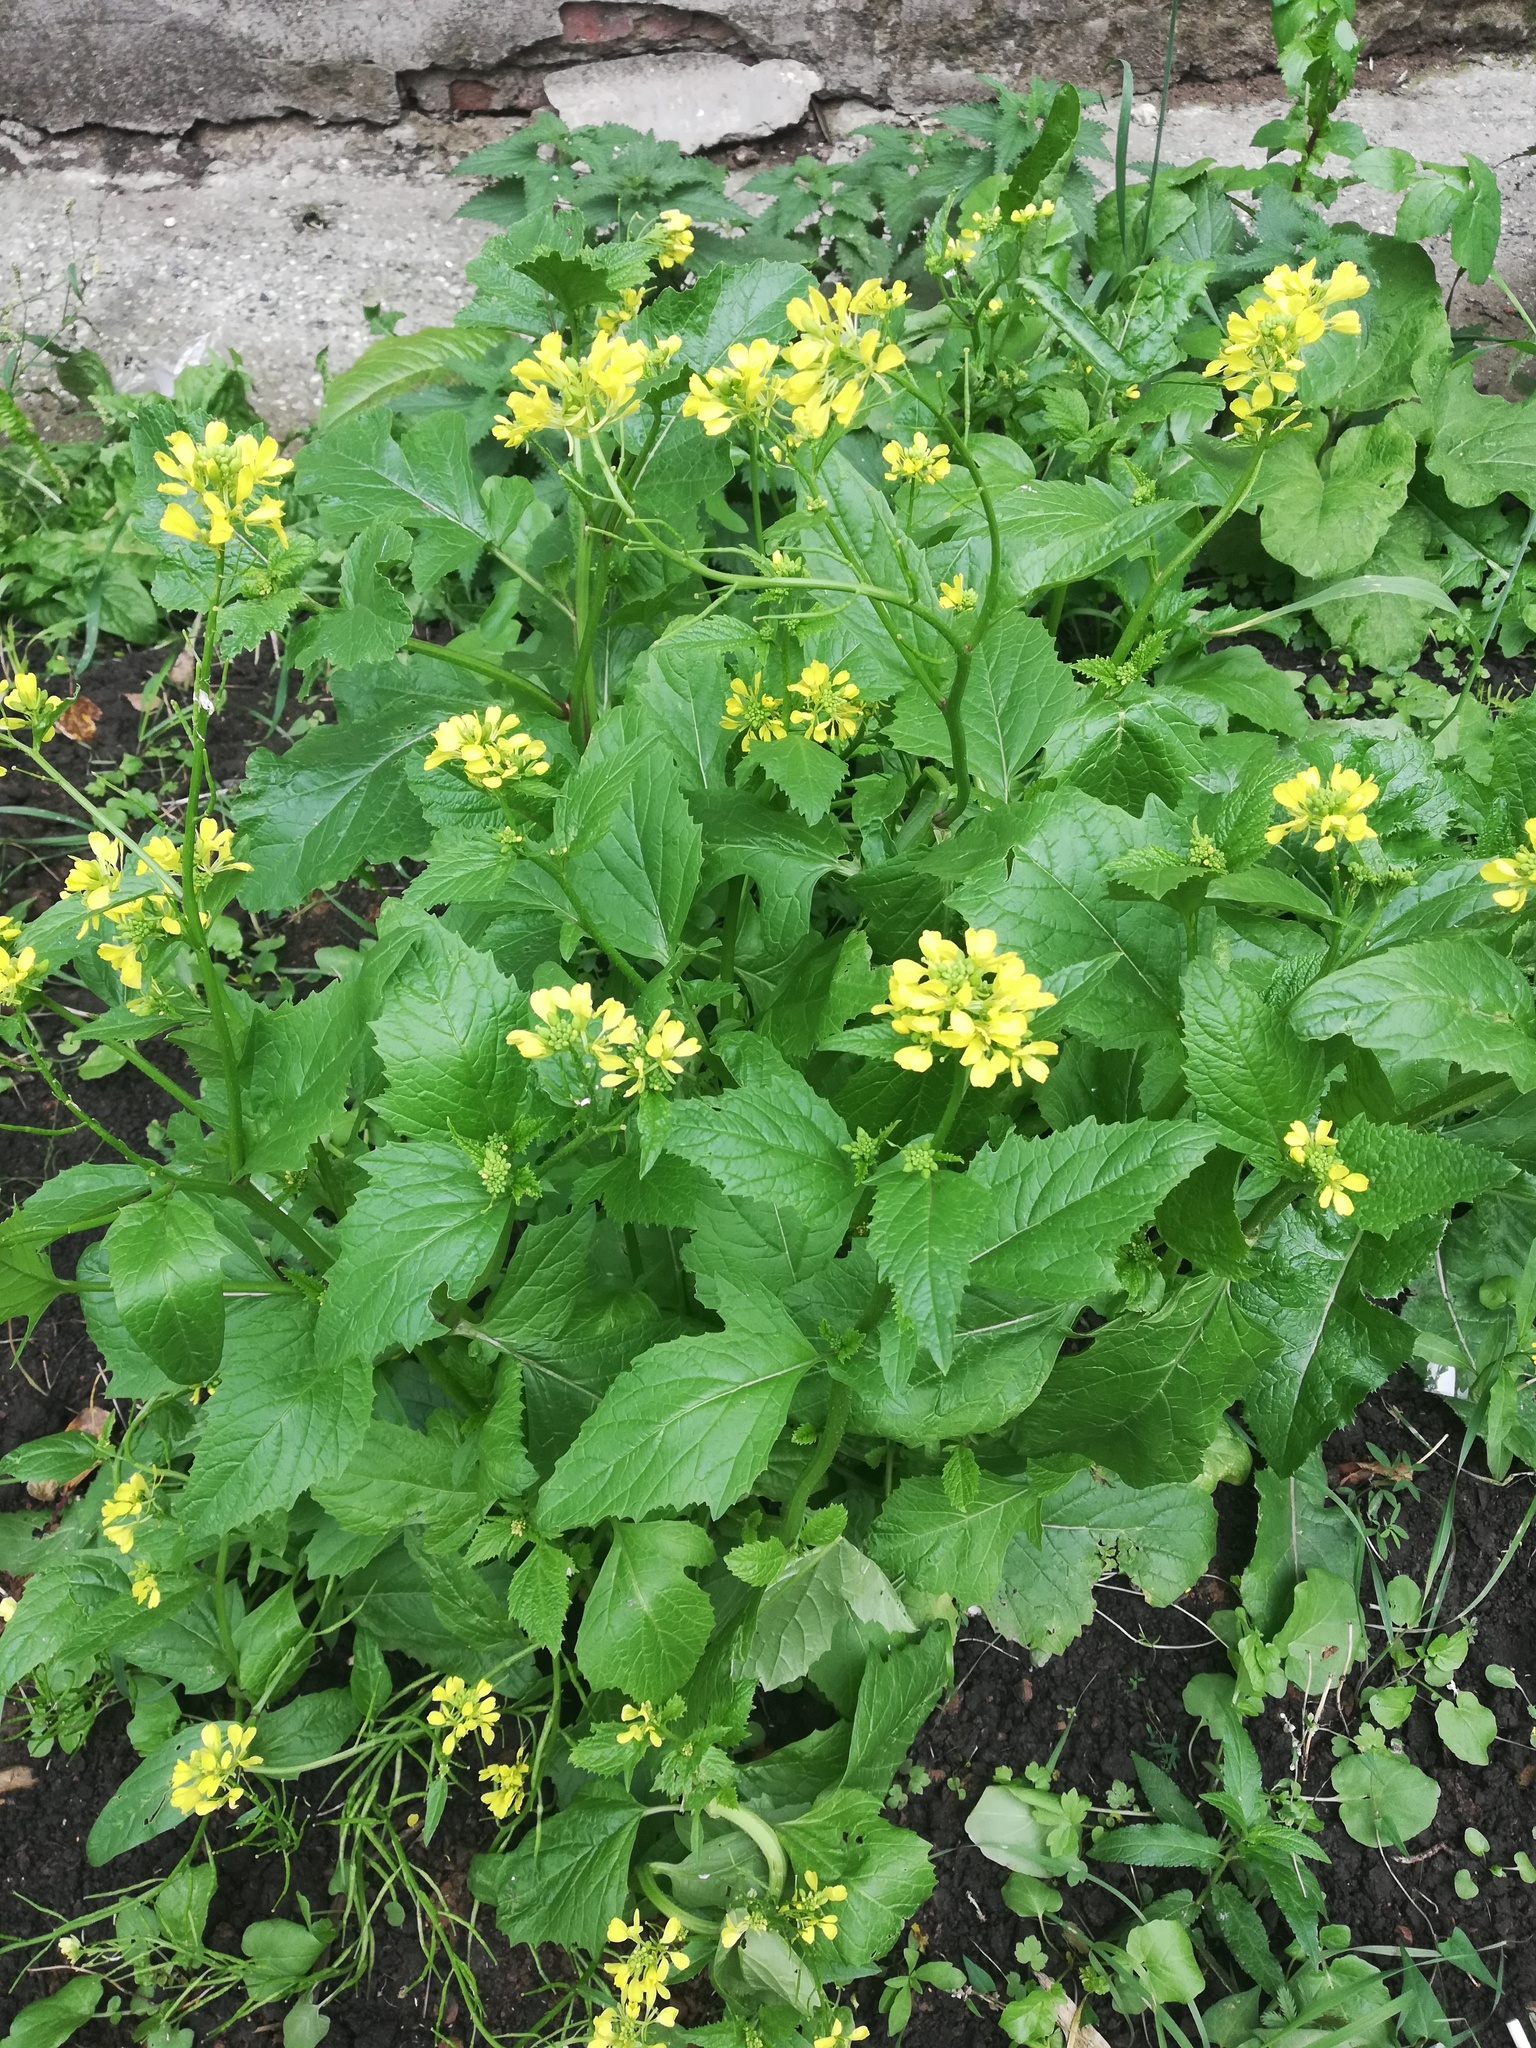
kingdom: Plantae
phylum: Tracheophyta
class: Magnoliopsida
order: Brassicales
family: Brassicaceae
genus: Sinapis
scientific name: Sinapis arvensis
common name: Charlock
